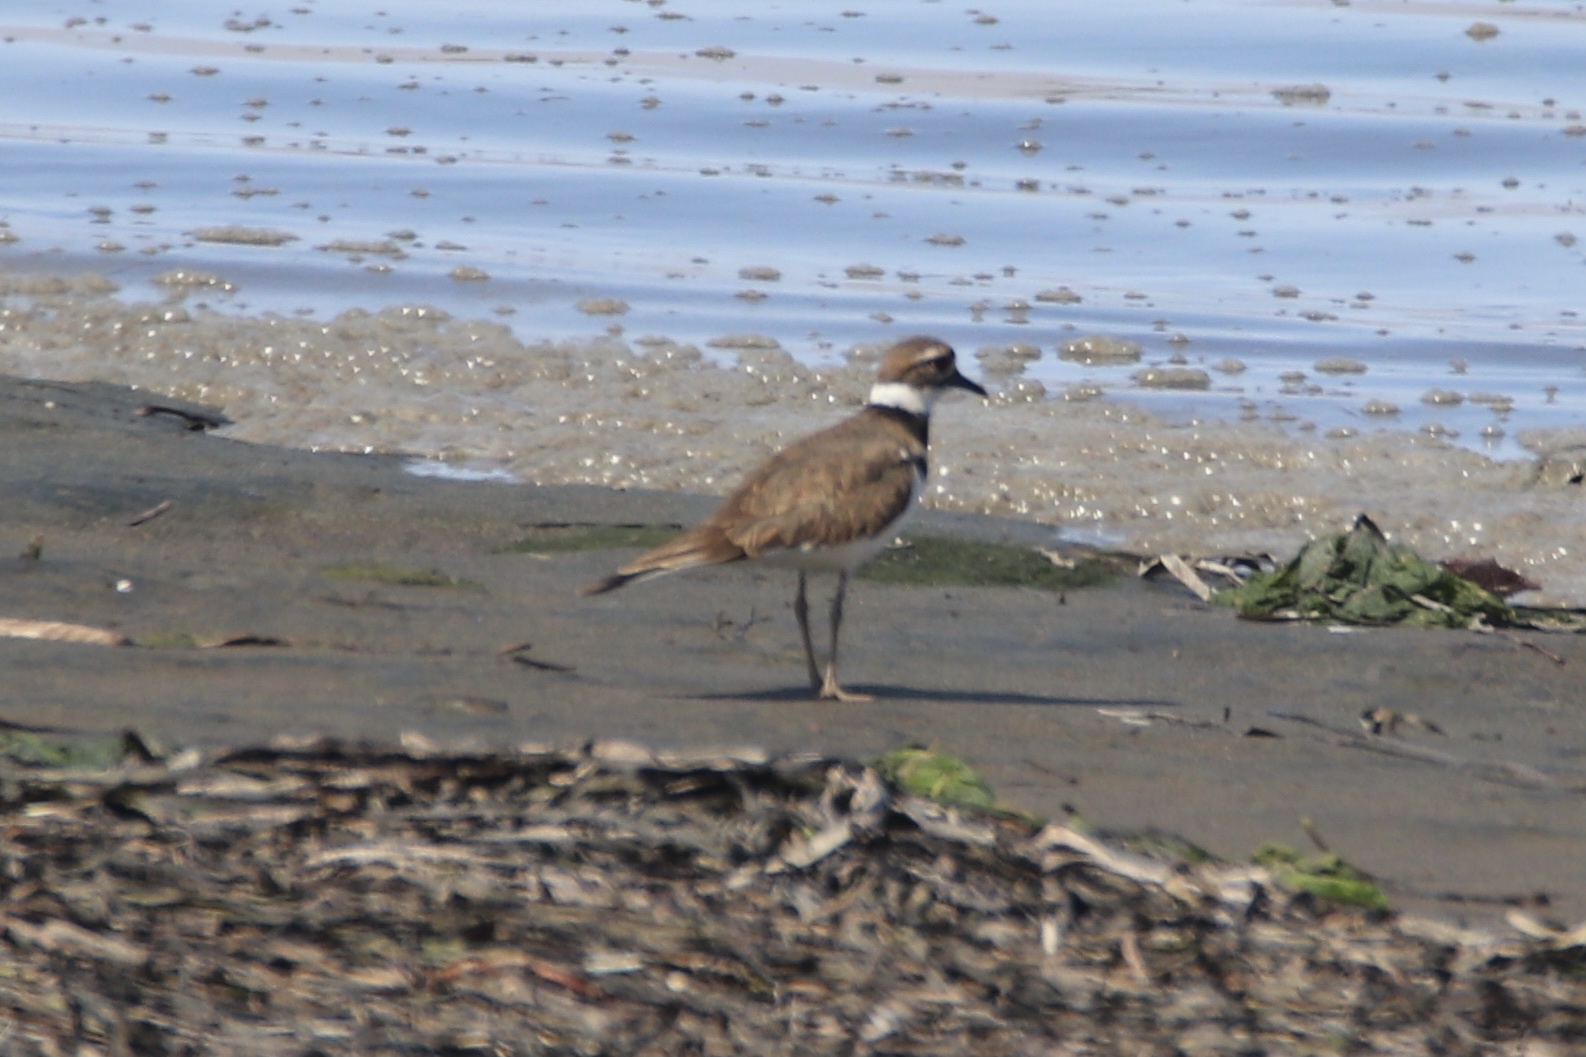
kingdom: Animalia
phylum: Chordata
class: Aves
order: Charadriiformes
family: Charadriidae
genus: Charadrius
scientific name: Charadrius vociferus
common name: Killdeer
